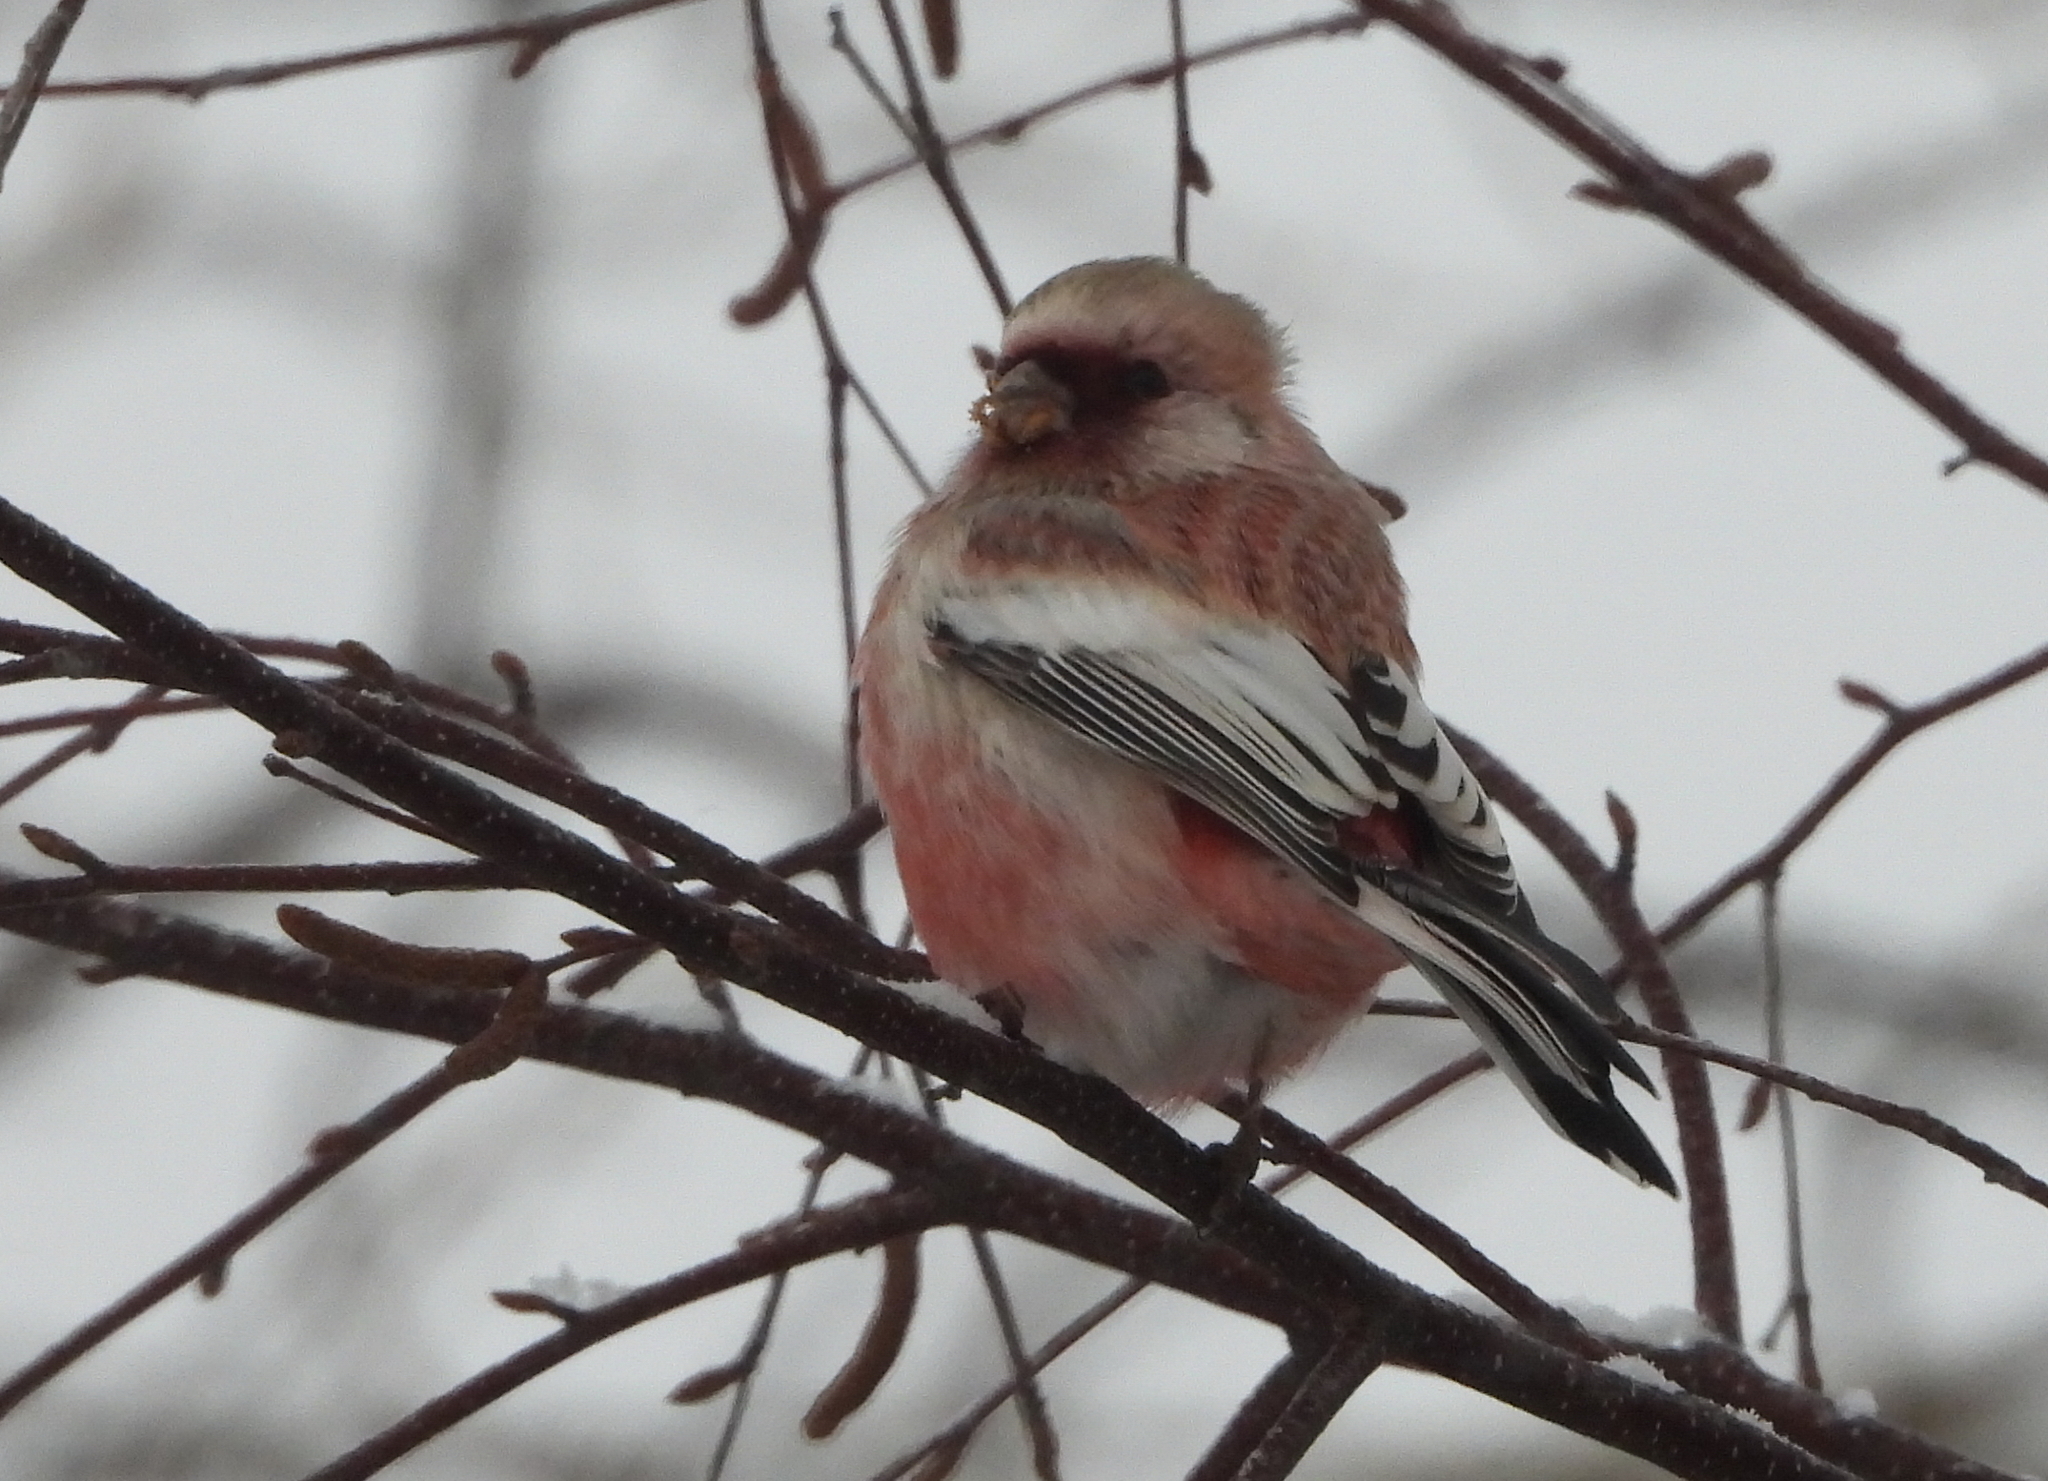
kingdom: Animalia
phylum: Chordata
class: Aves
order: Passeriformes
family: Fringillidae
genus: Carpodacus
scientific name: Carpodacus sibiricus
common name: Long-tailed rosefinch
